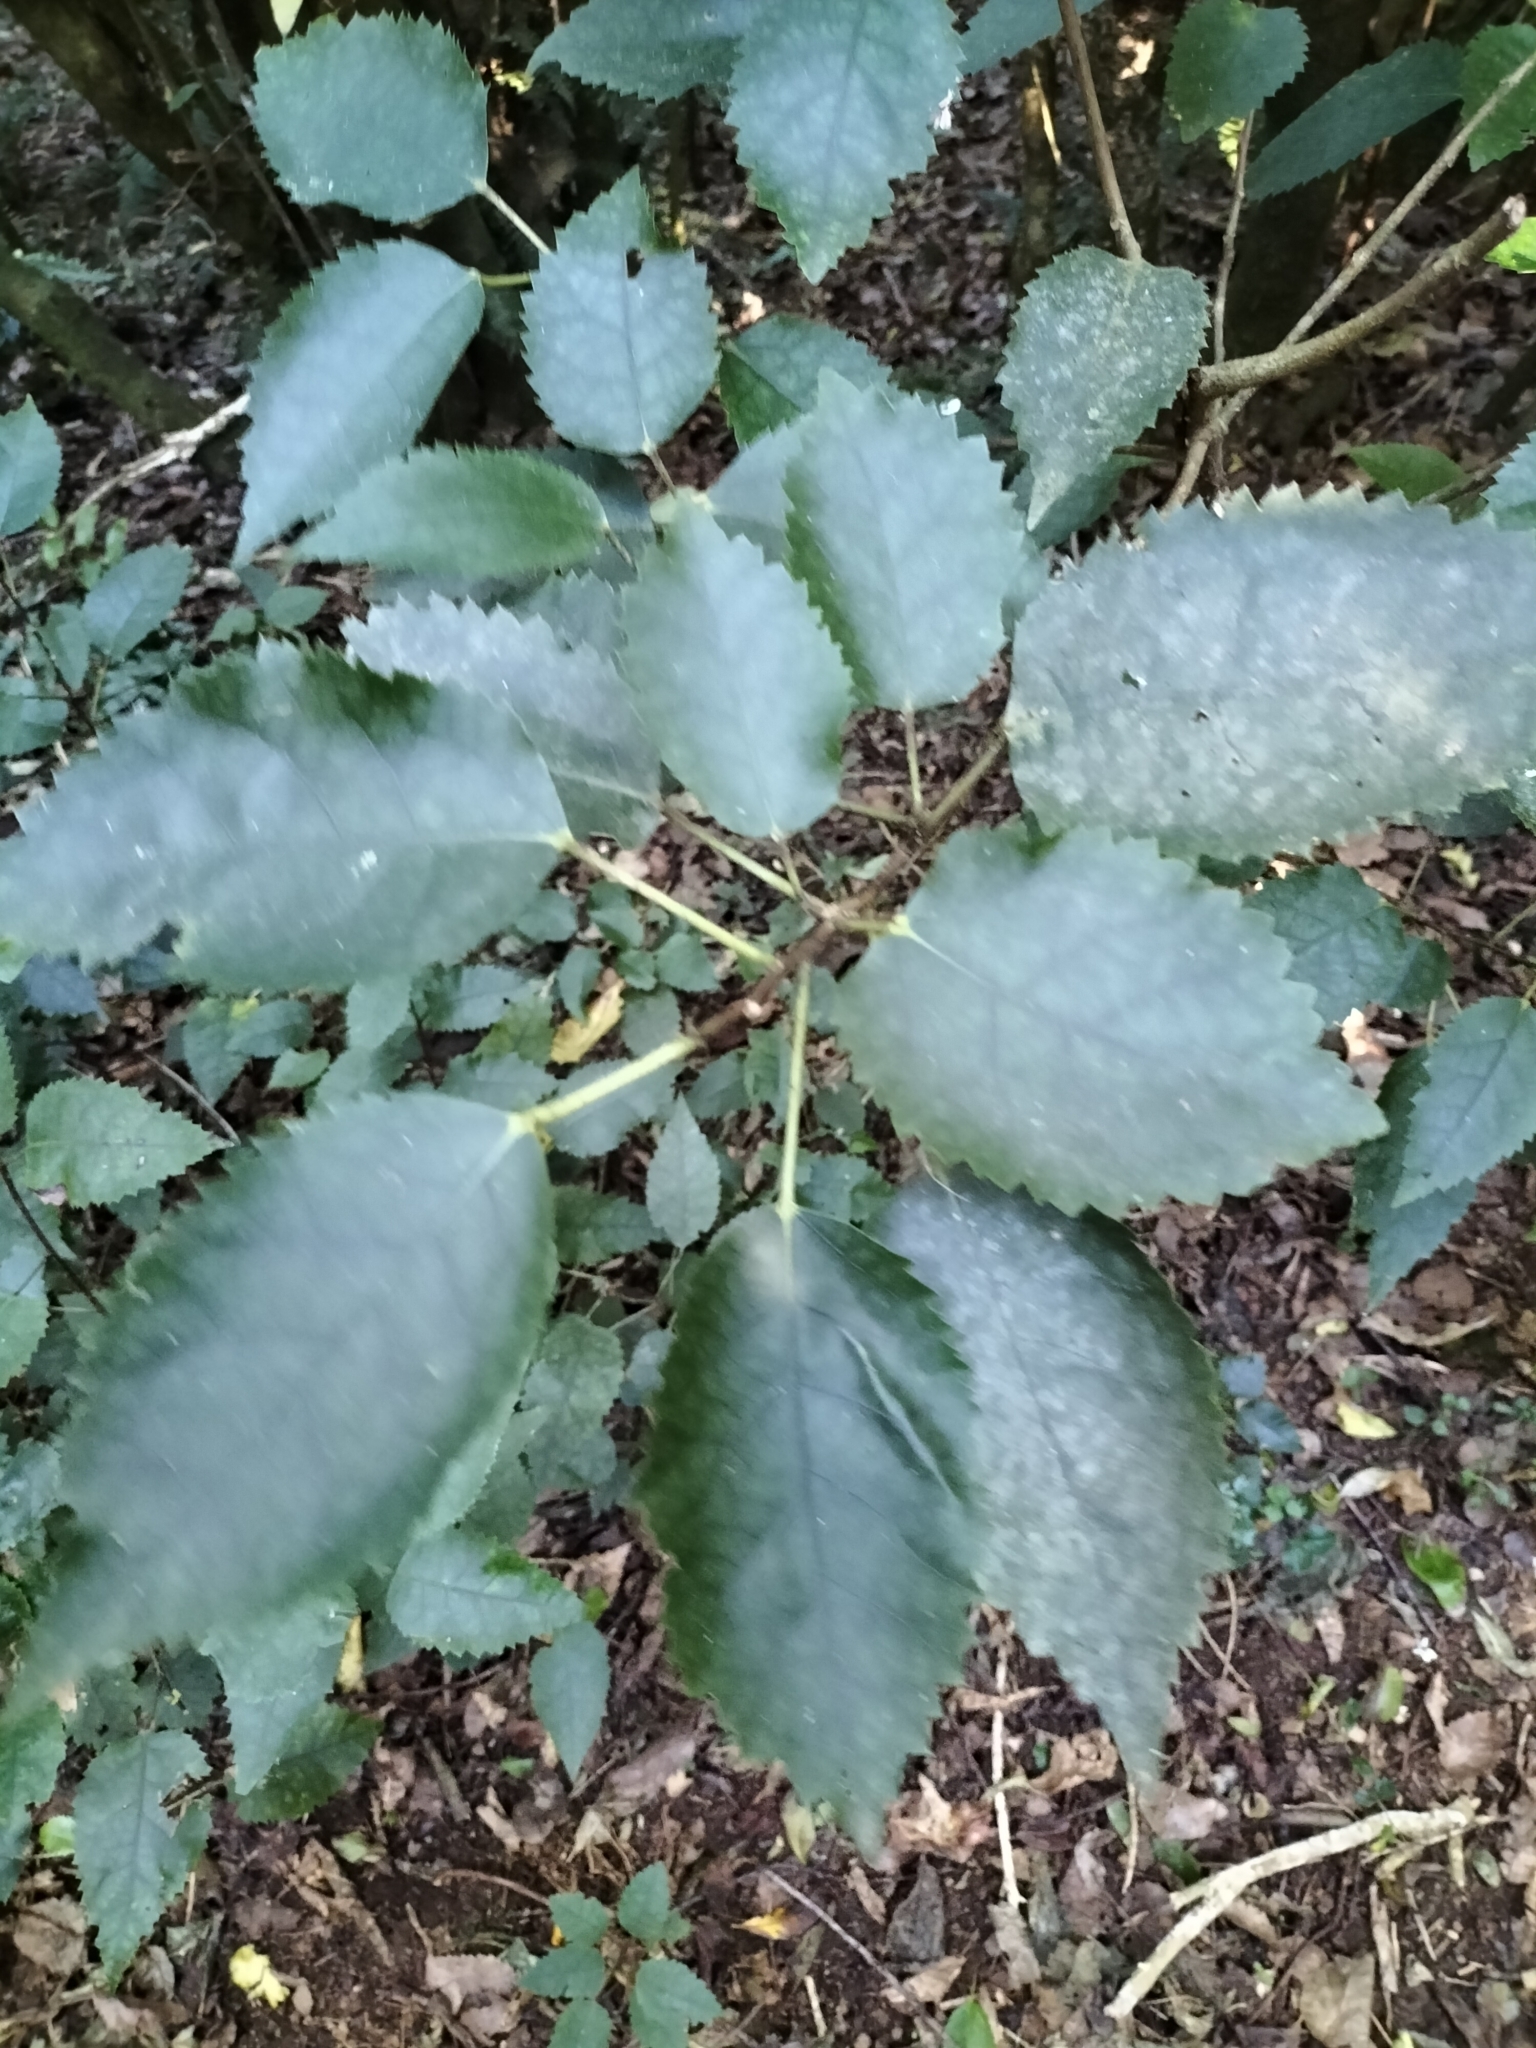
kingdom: Plantae
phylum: Tracheophyta
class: Magnoliopsida
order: Malvales
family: Malvaceae
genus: Hoheria
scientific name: Hoheria populnea
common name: Lacebark
